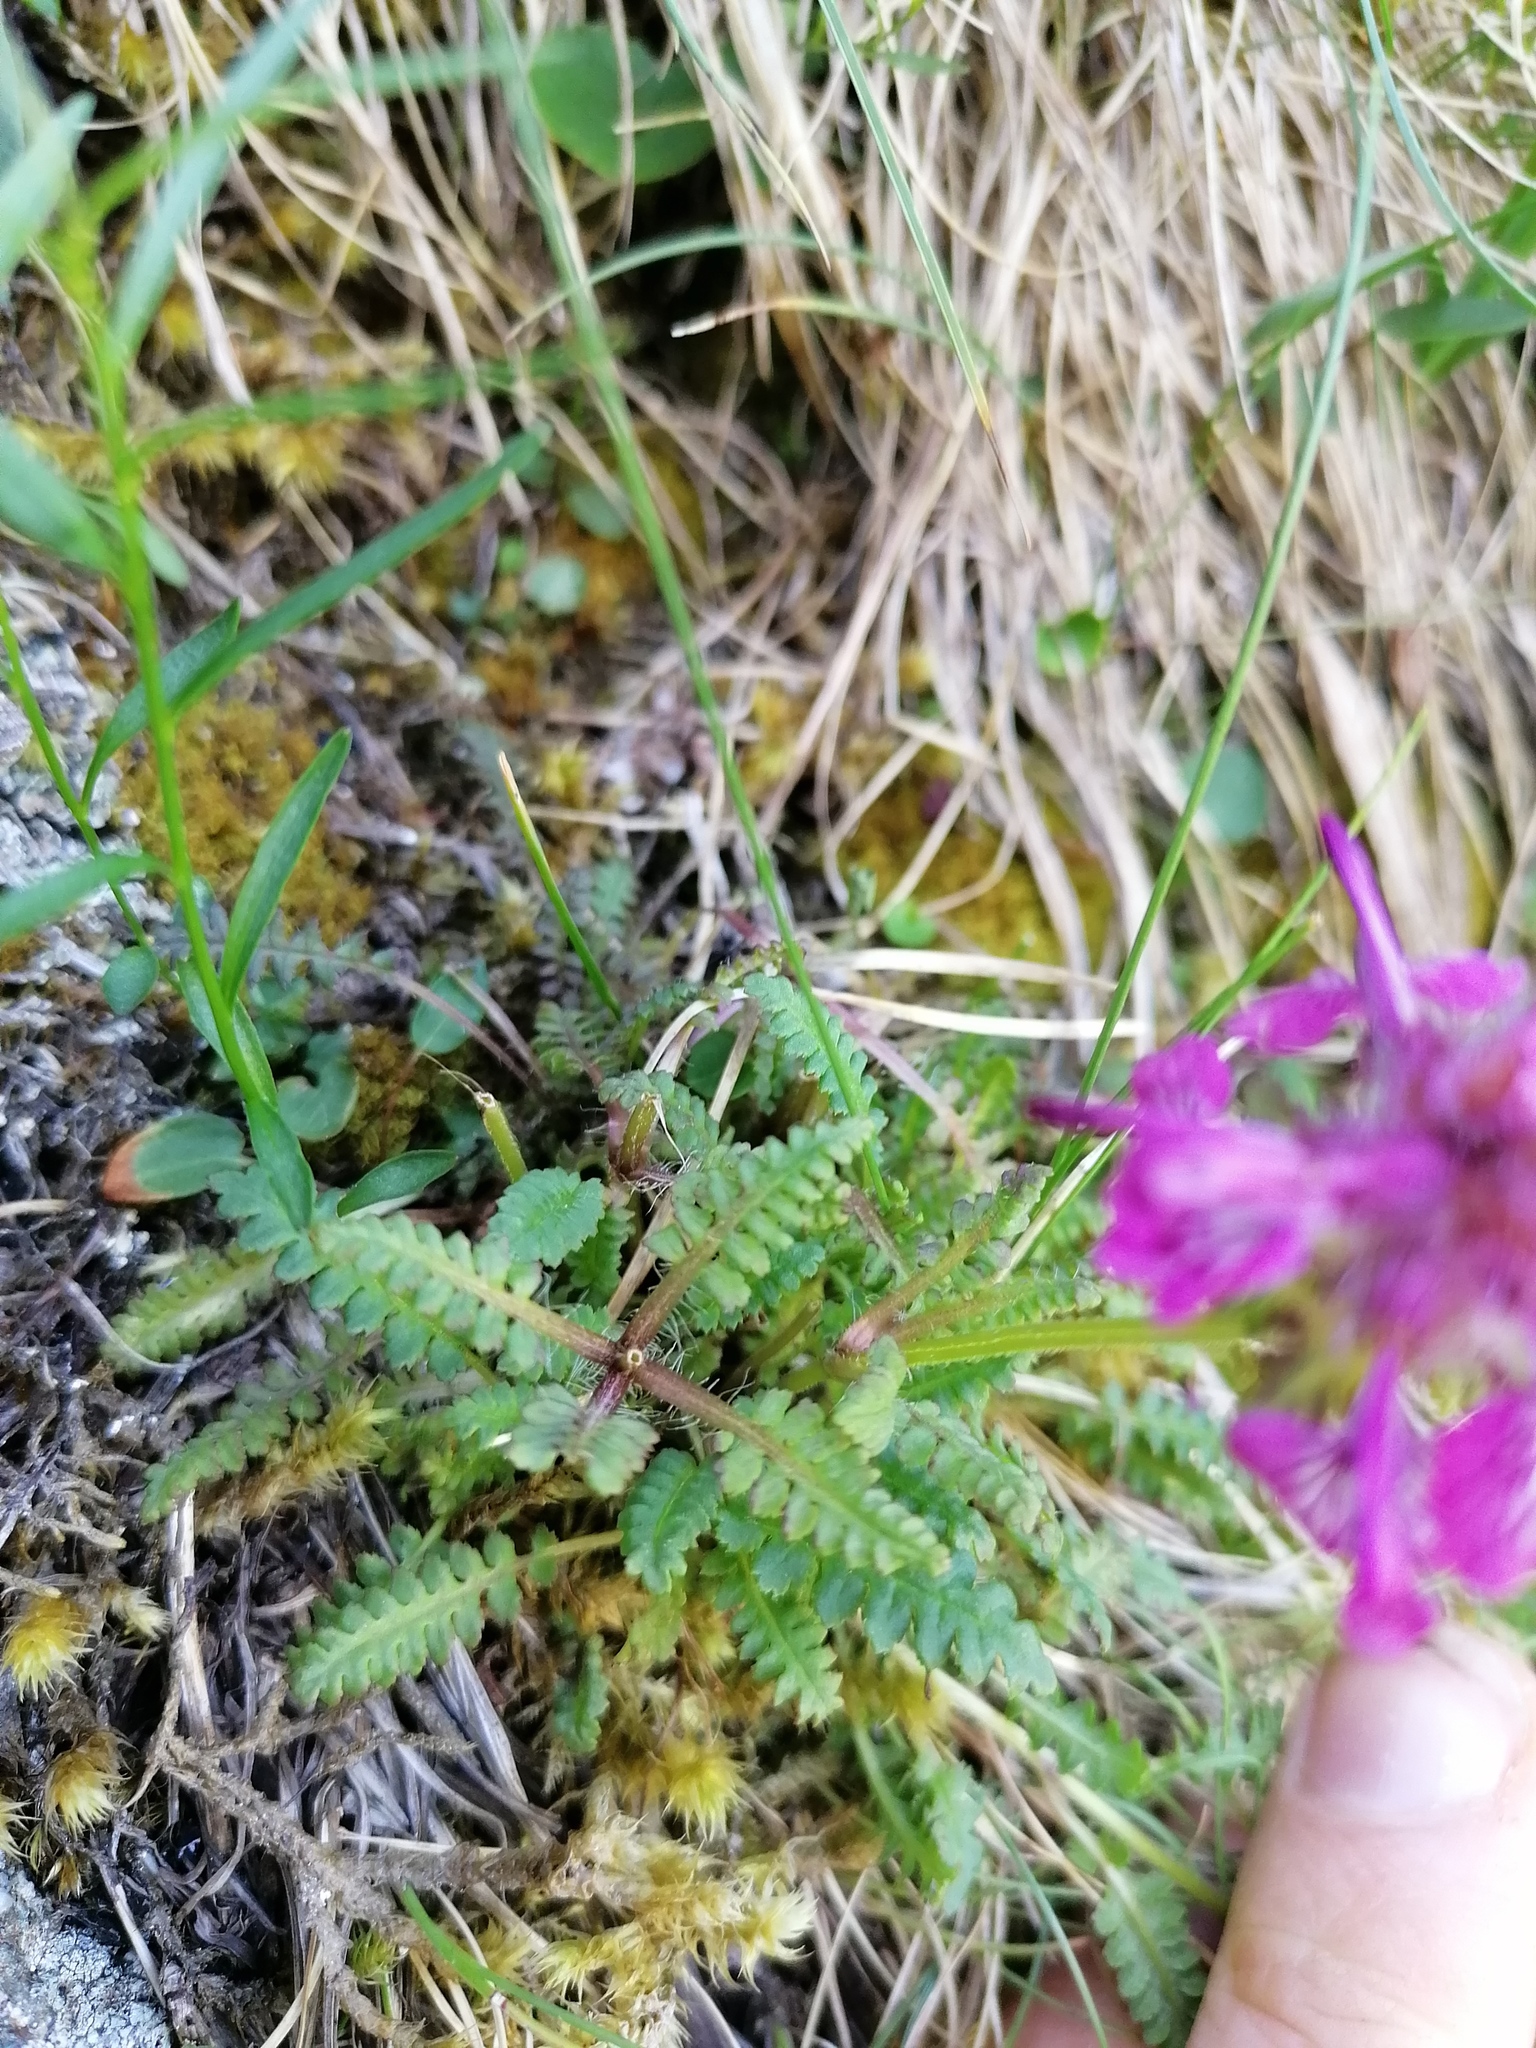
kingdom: Plantae
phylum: Tracheophyta
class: Magnoliopsida
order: Lamiales
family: Orobanchaceae
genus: Pedicularis
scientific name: Pedicularis verticillata
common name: Whorled lousewort
